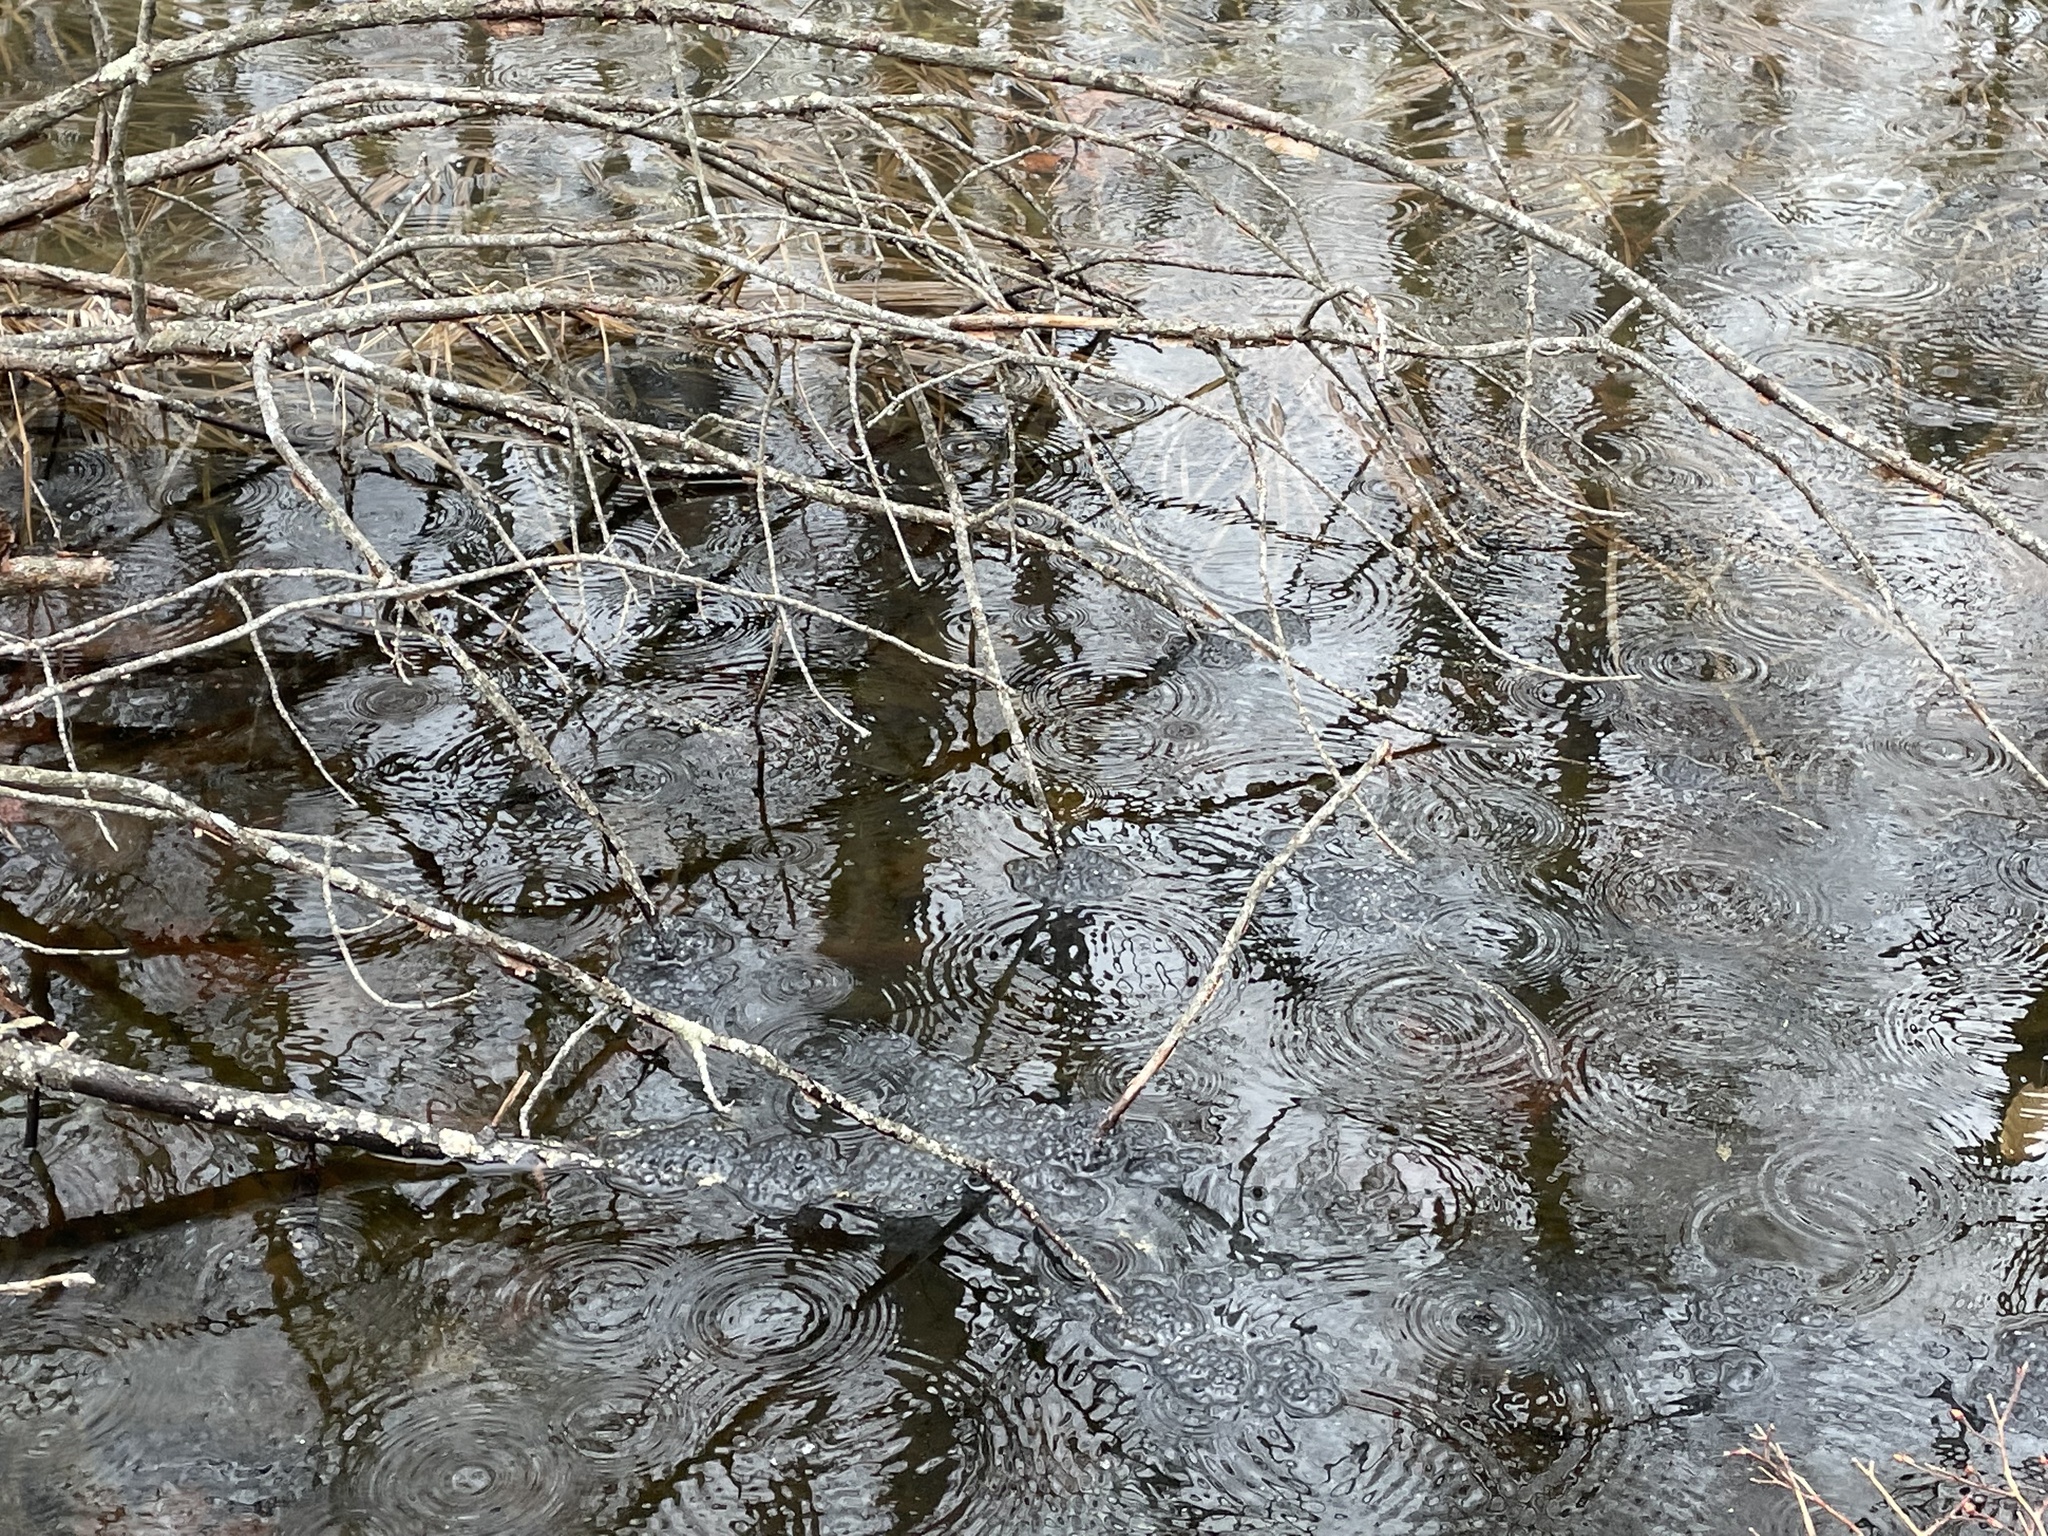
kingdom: Animalia
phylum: Chordata
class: Amphibia
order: Anura
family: Ranidae
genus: Lithobates
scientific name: Lithobates sylvaticus
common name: Wood frog
